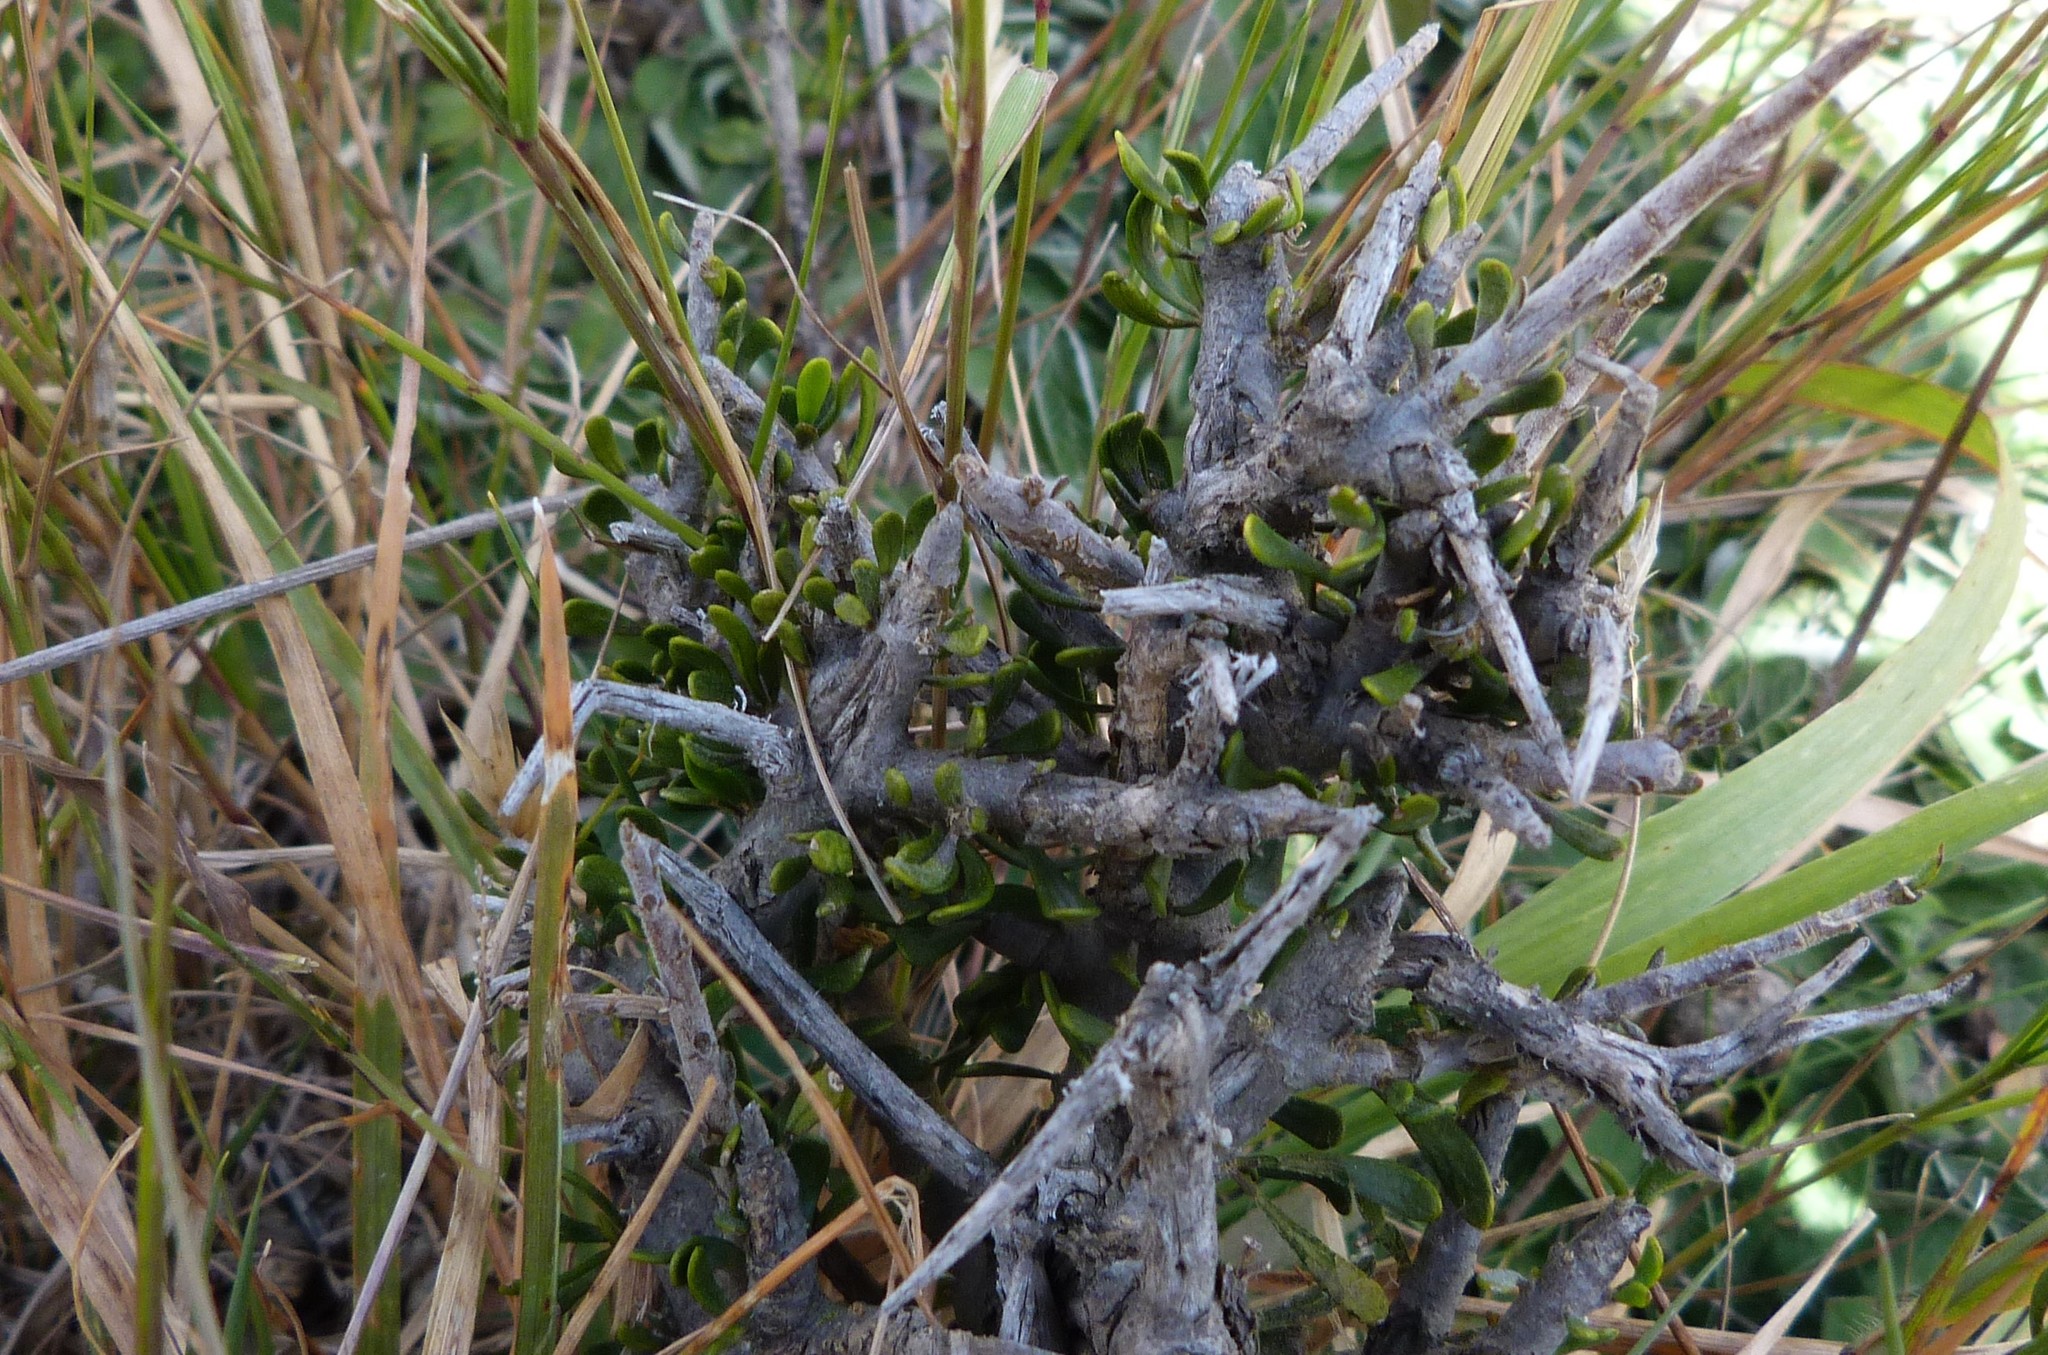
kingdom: Plantae
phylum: Tracheophyta
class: Magnoliopsida
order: Malpighiales
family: Violaceae
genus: Melicytus
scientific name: Melicytus alpinus
